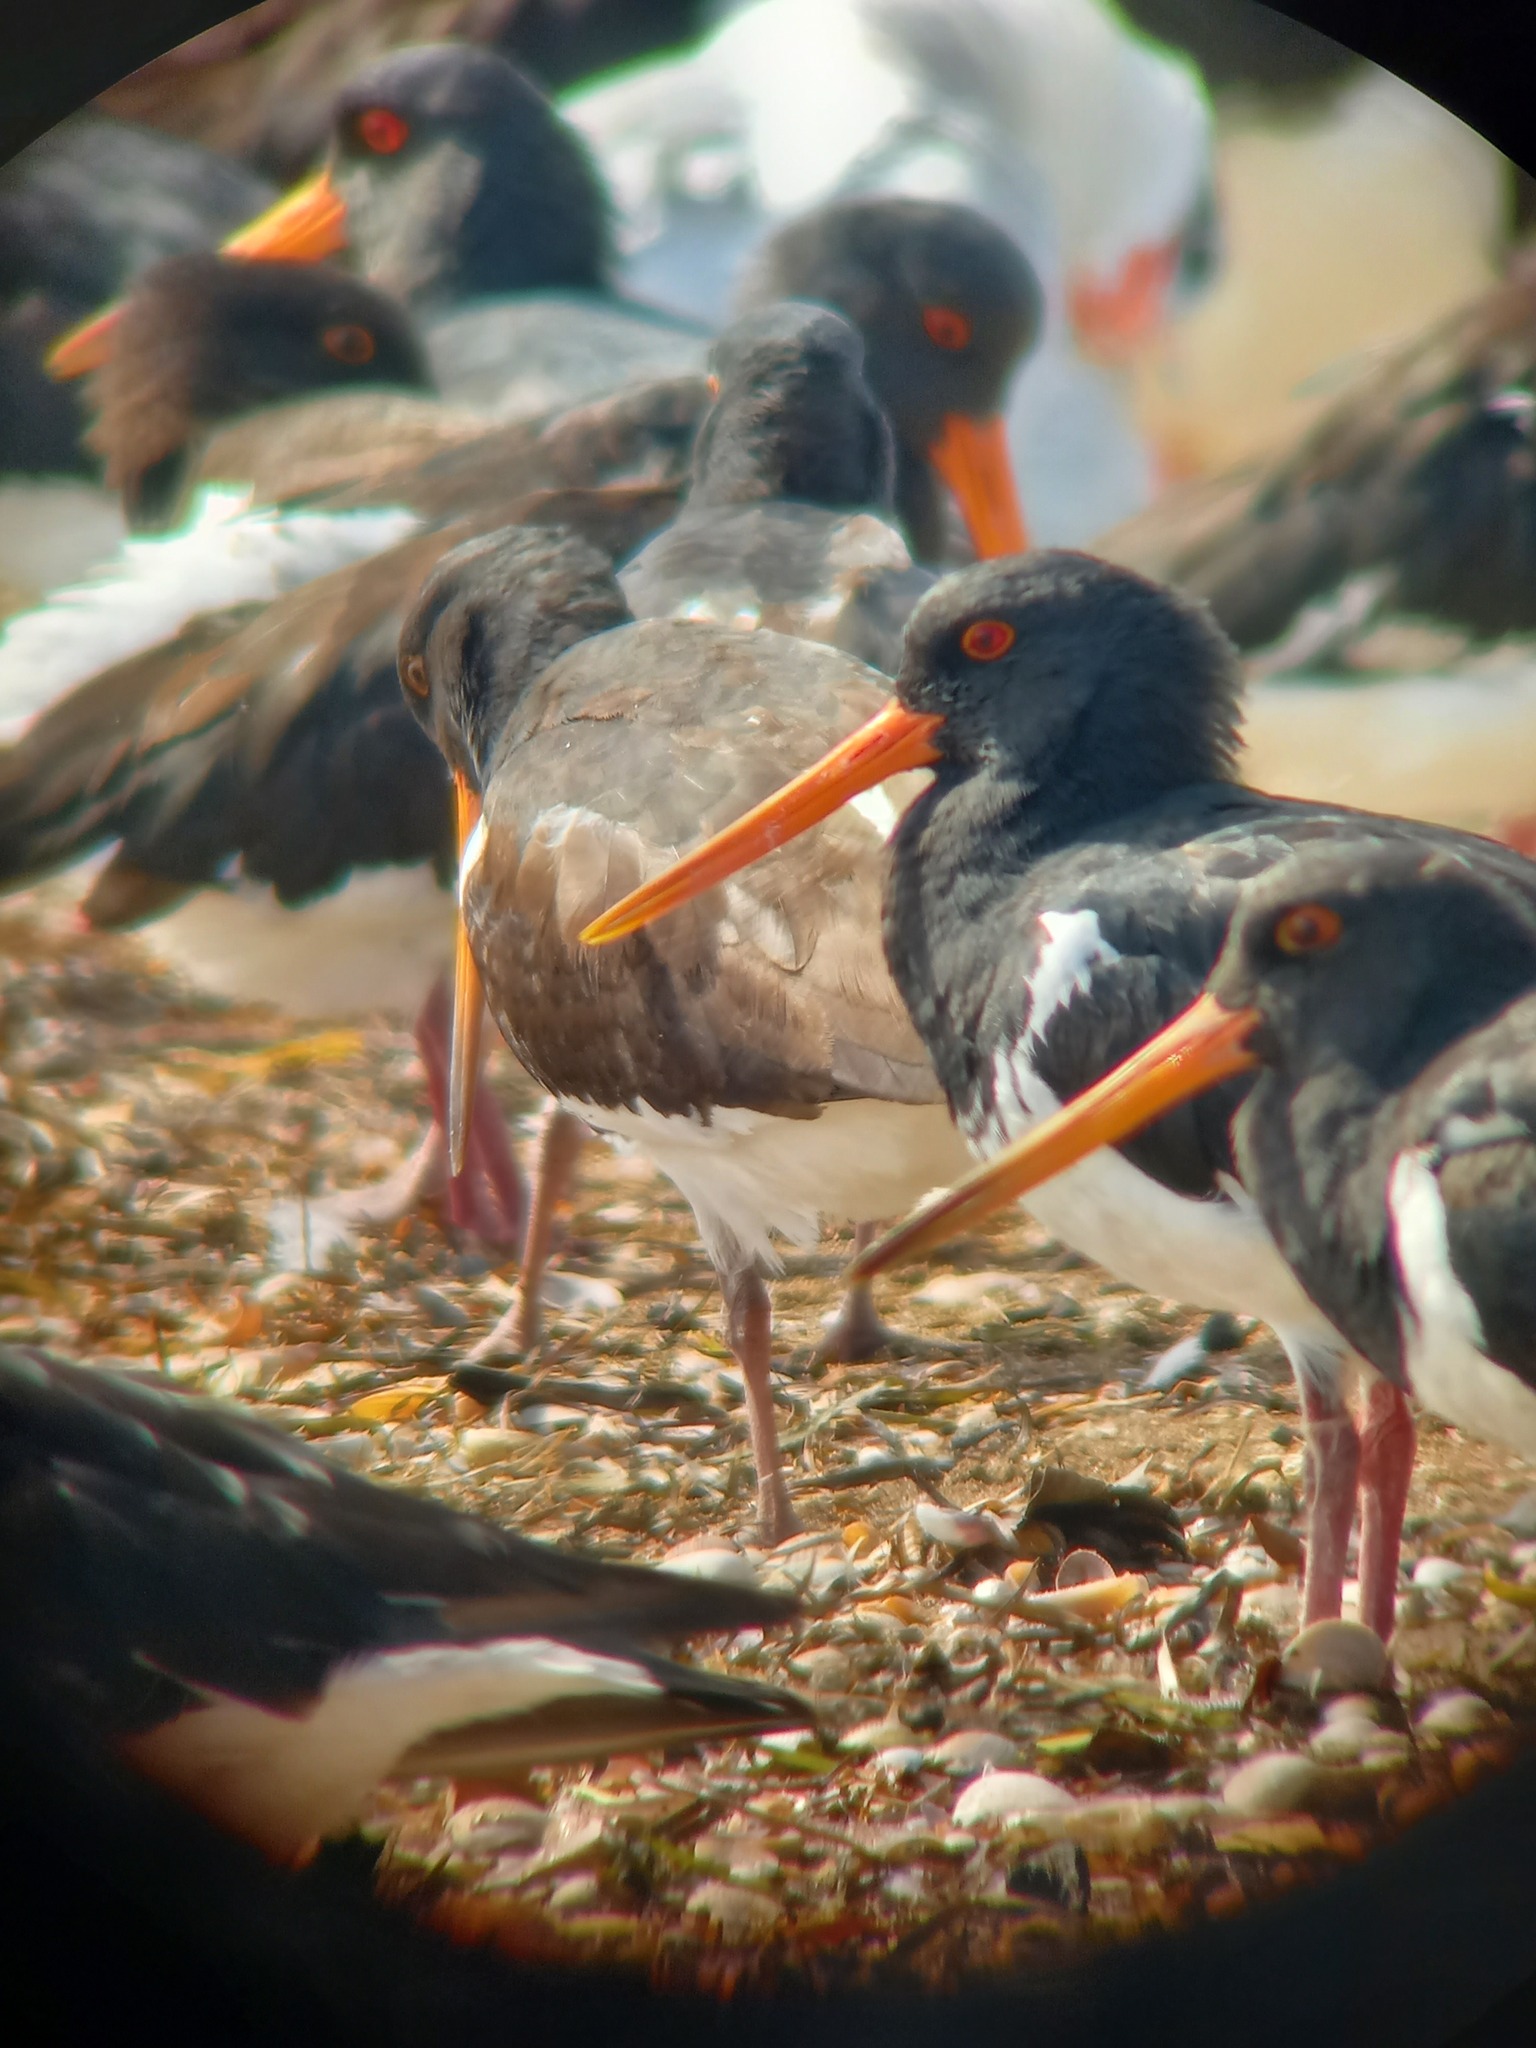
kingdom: Animalia
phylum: Chordata
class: Aves
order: Charadriiformes
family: Haematopodidae
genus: Haematopus
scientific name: Haematopus finschi
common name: South island oystercatcher
